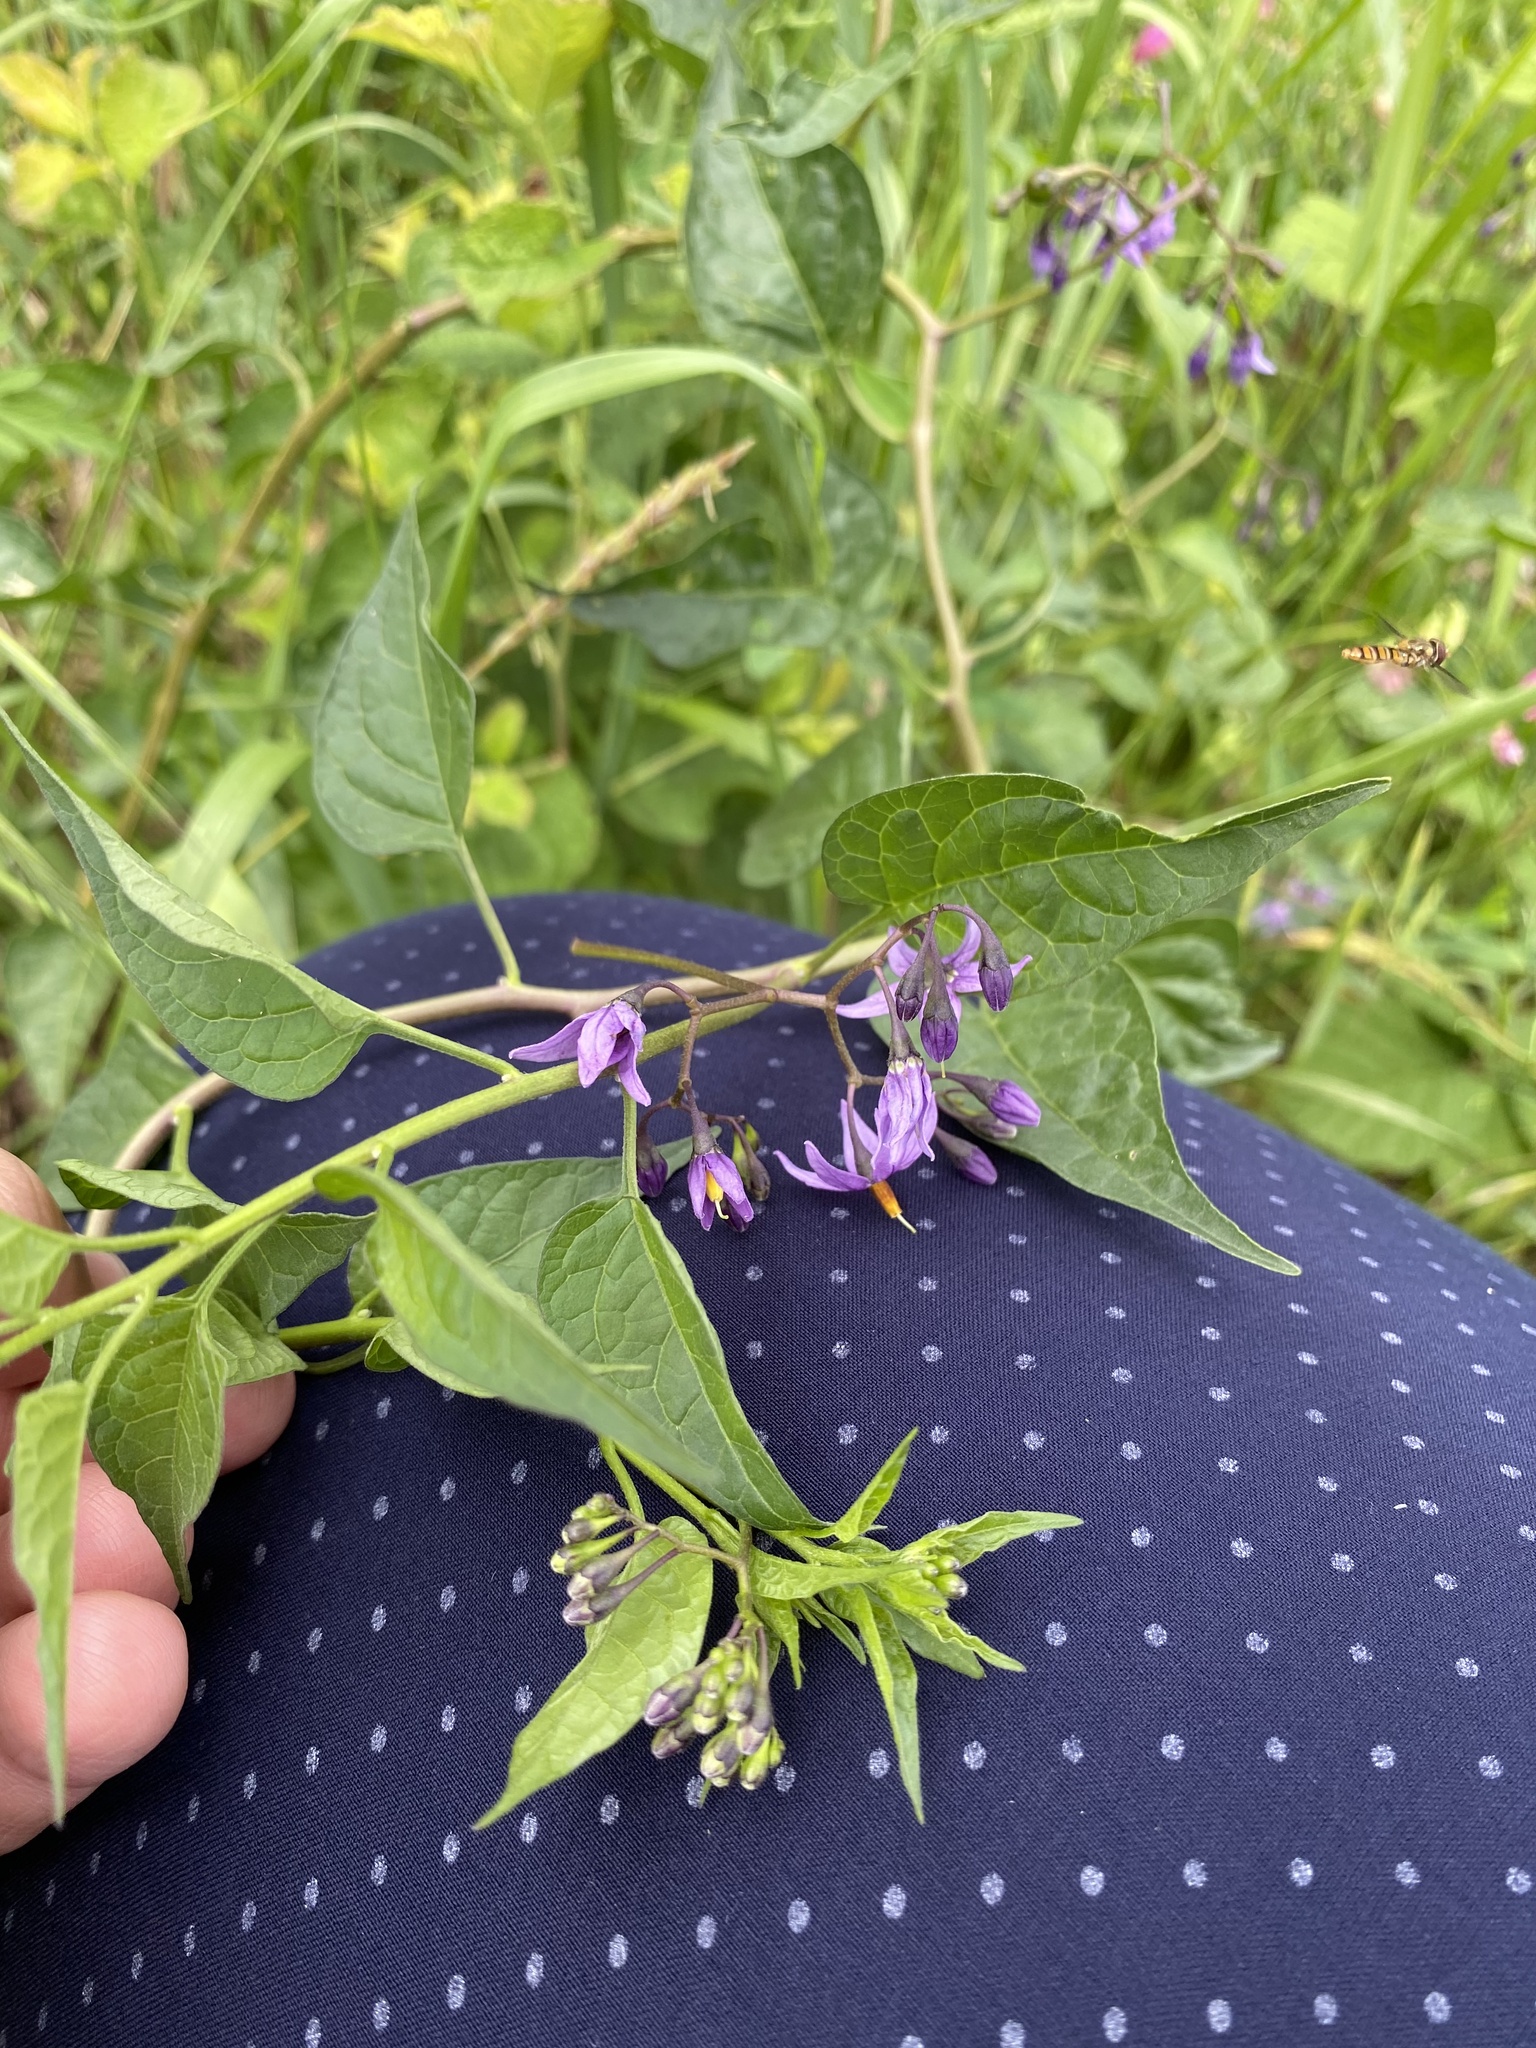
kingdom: Plantae
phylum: Tracheophyta
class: Magnoliopsida
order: Solanales
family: Solanaceae
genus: Solanum
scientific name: Solanum dulcamara
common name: Climbing nightshade
